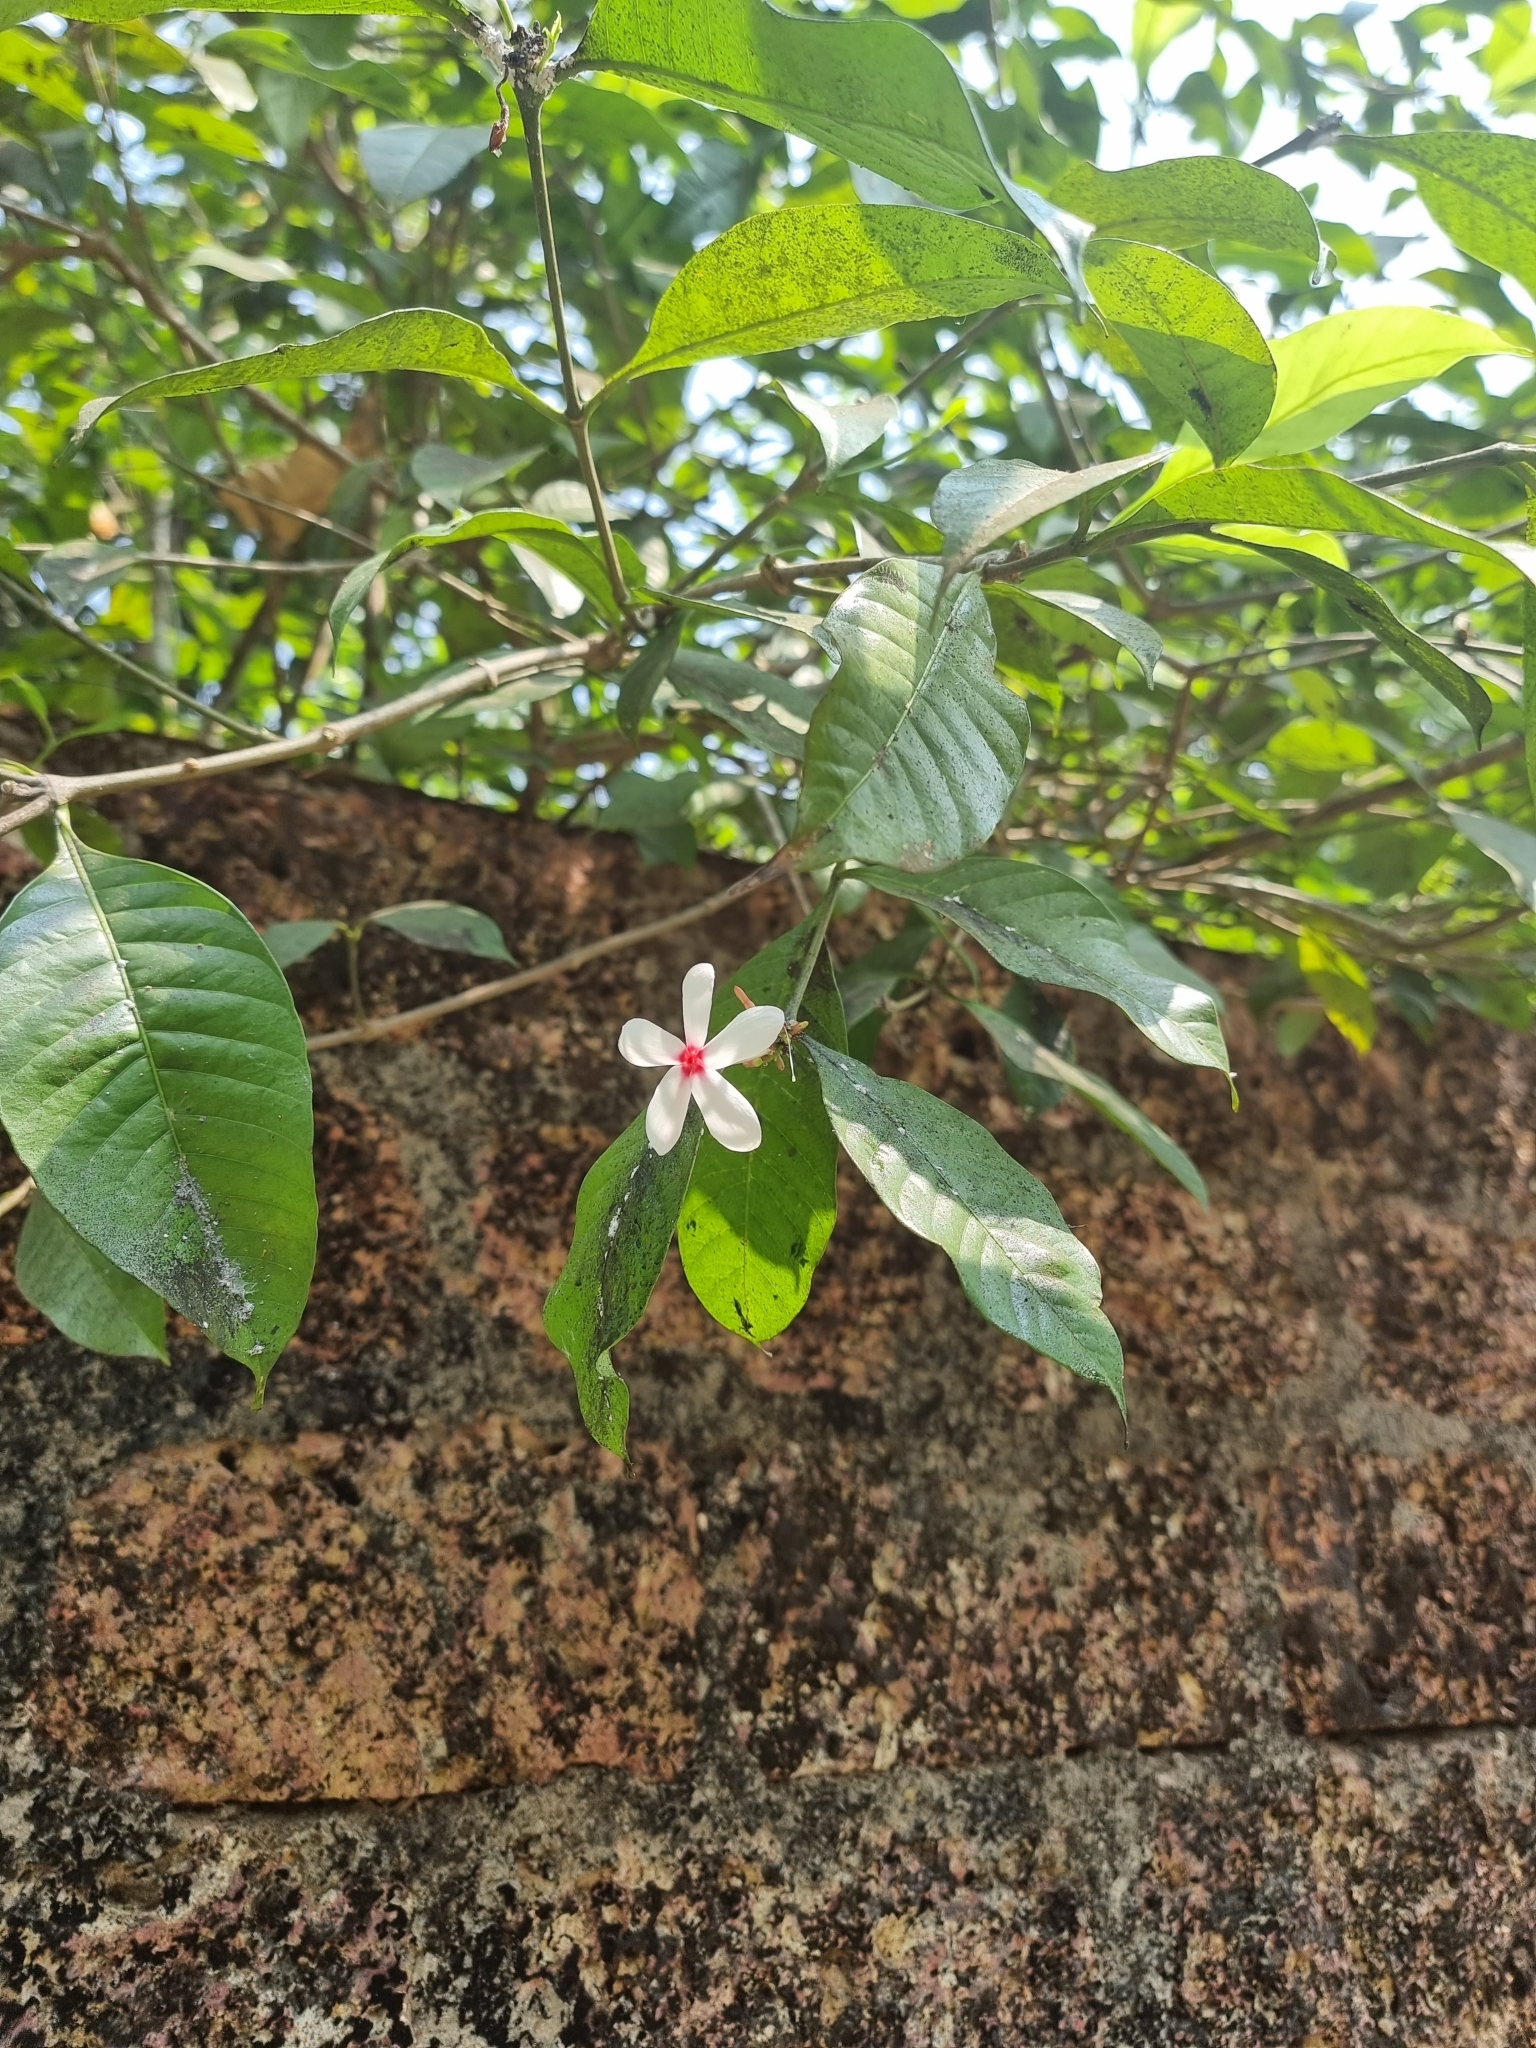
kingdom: Plantae
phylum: Tracheophyta
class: Magnoliopsida
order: Gentianales
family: Apocynaceae
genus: Kopsia
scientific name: Kopsia fruticosa
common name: Shrub-vinca
